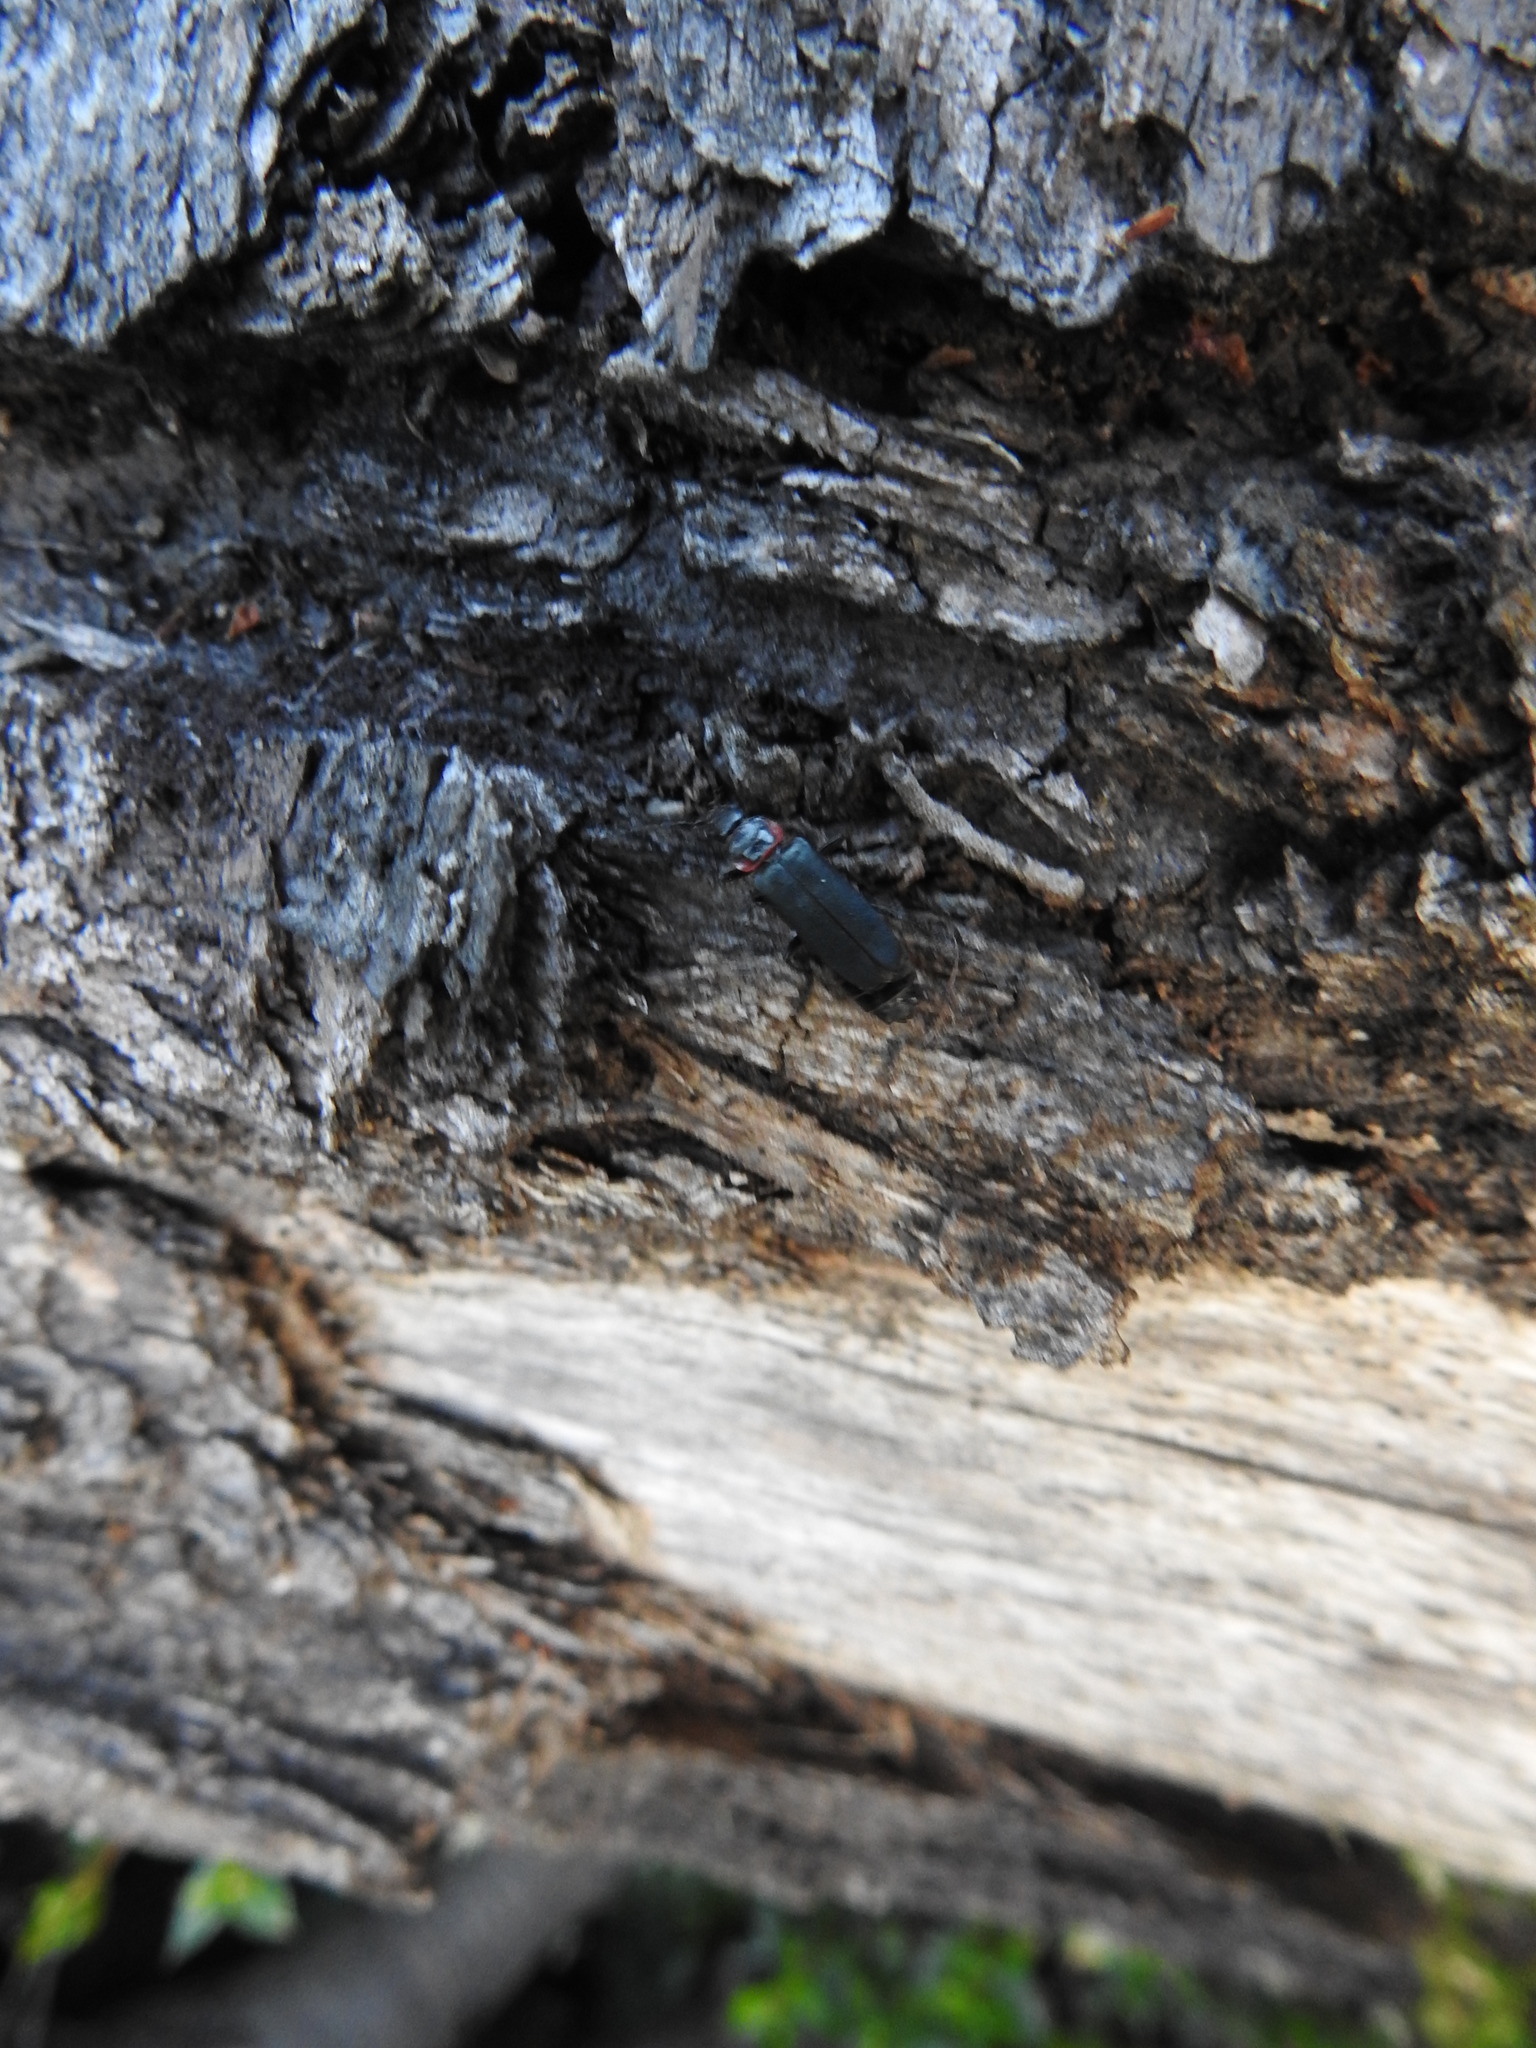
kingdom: Animalia
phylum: Arthropoda
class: Insecta
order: Coleoptera
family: Cantharidae
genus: Chauliognathus
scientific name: Chauliognathus
